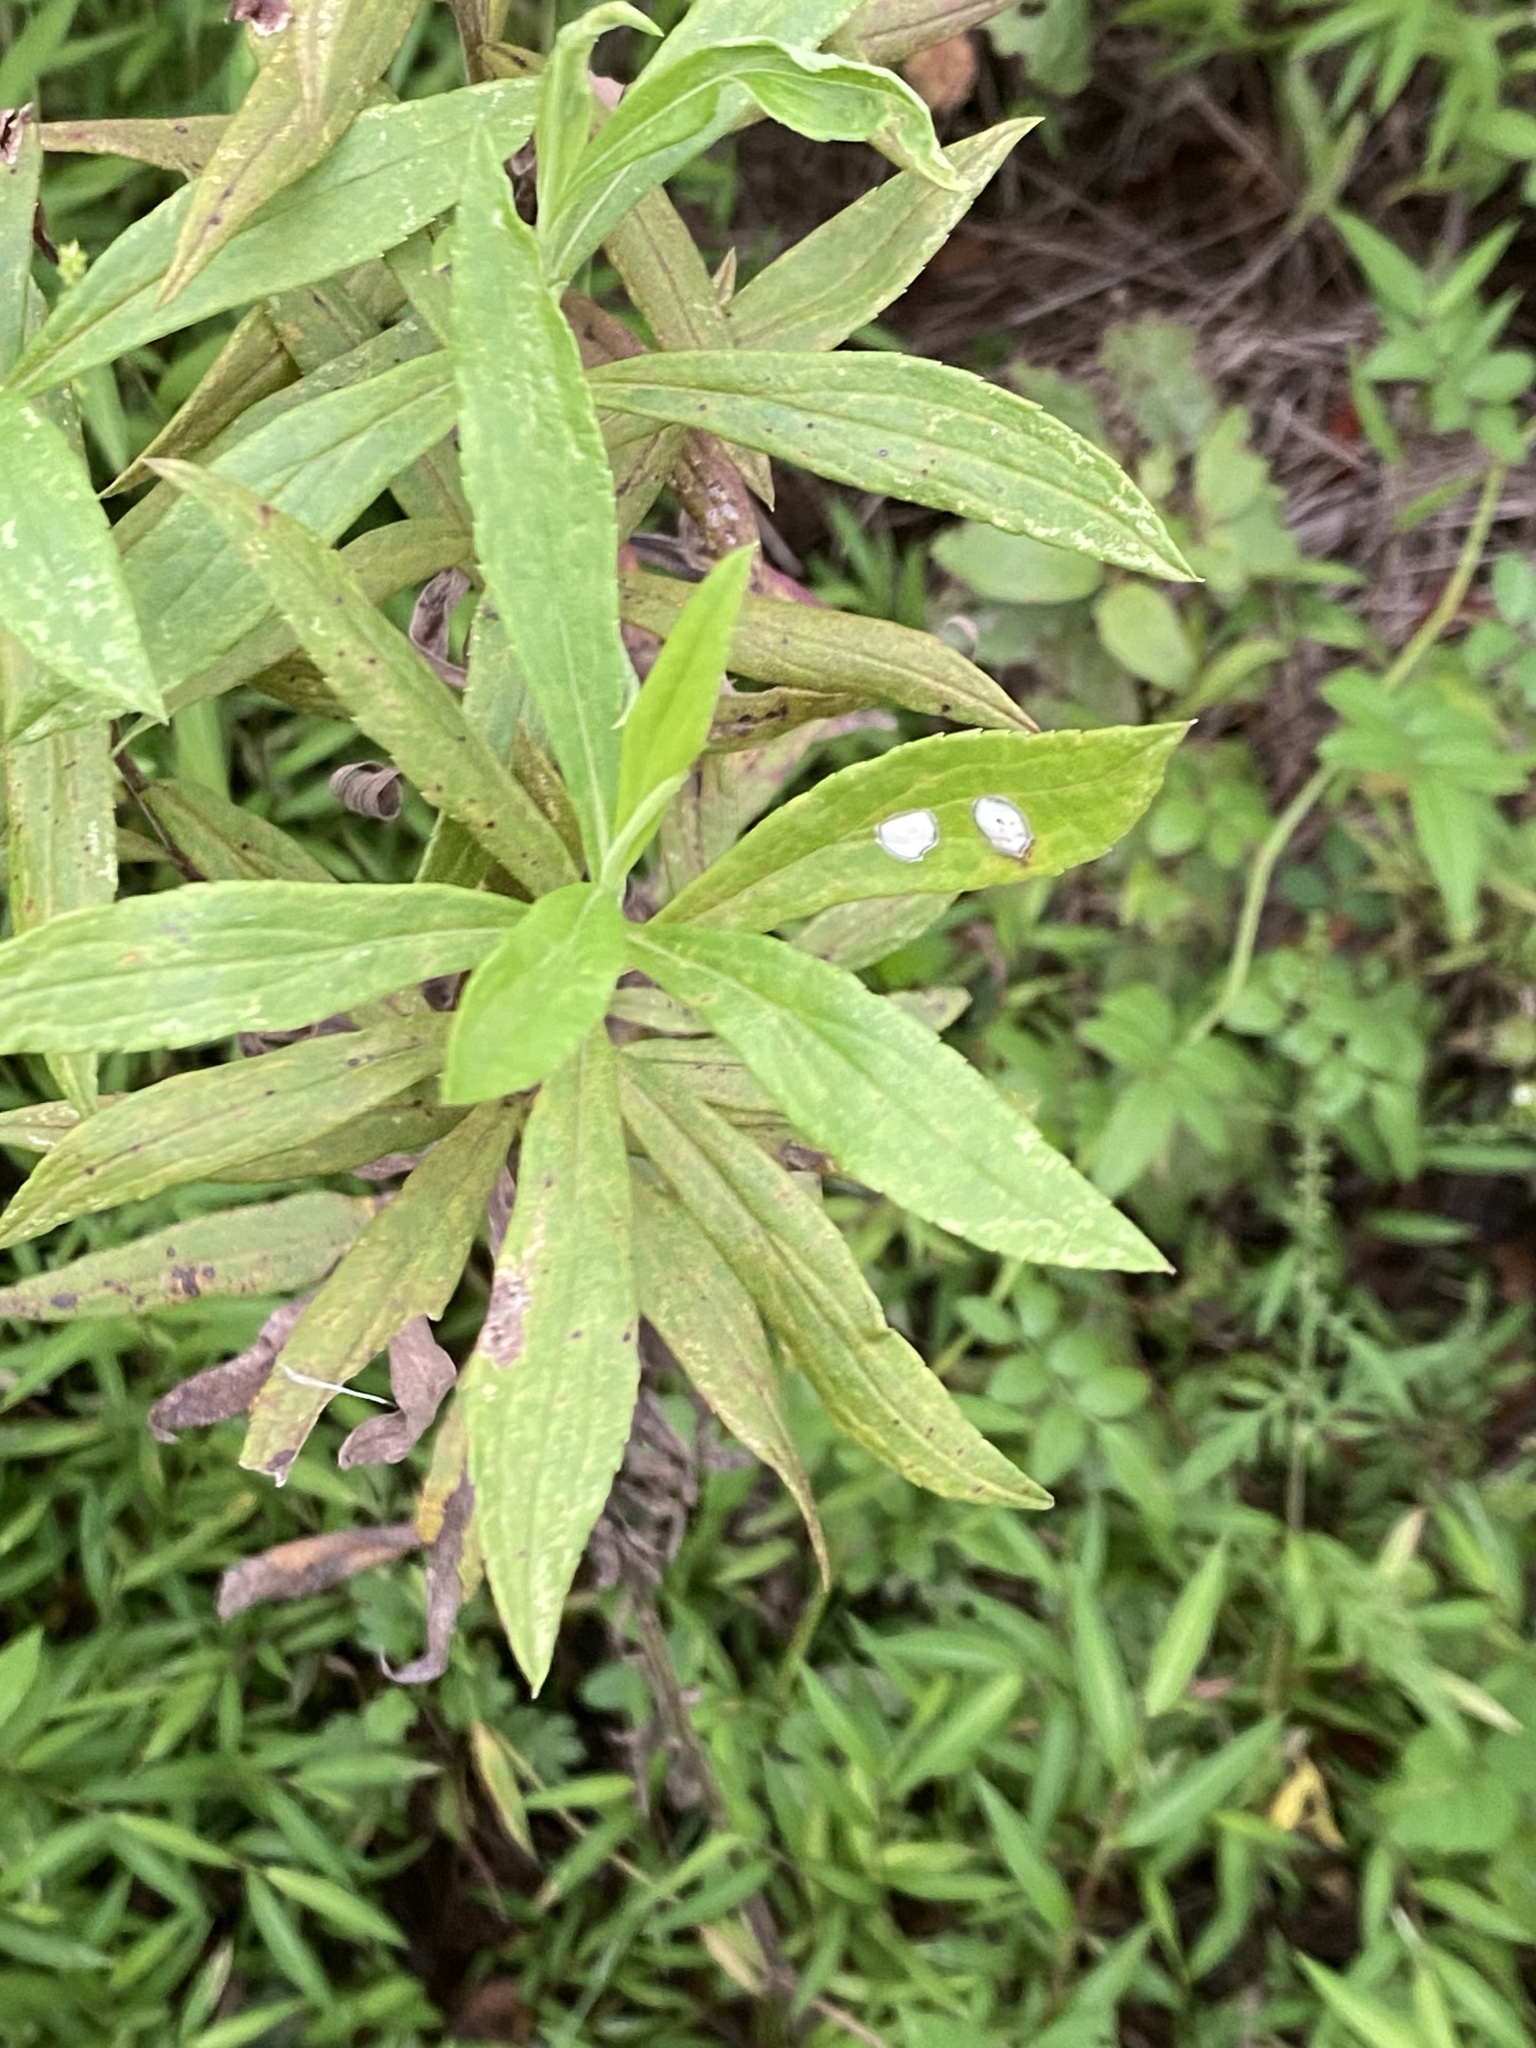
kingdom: Animalia
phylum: Arthropoda
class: Insecta
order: Diptera
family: Cecidomyiidae
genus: Asteromyia
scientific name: Asteromyia carbonifera
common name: Carbonifera goldenrod gall midge
